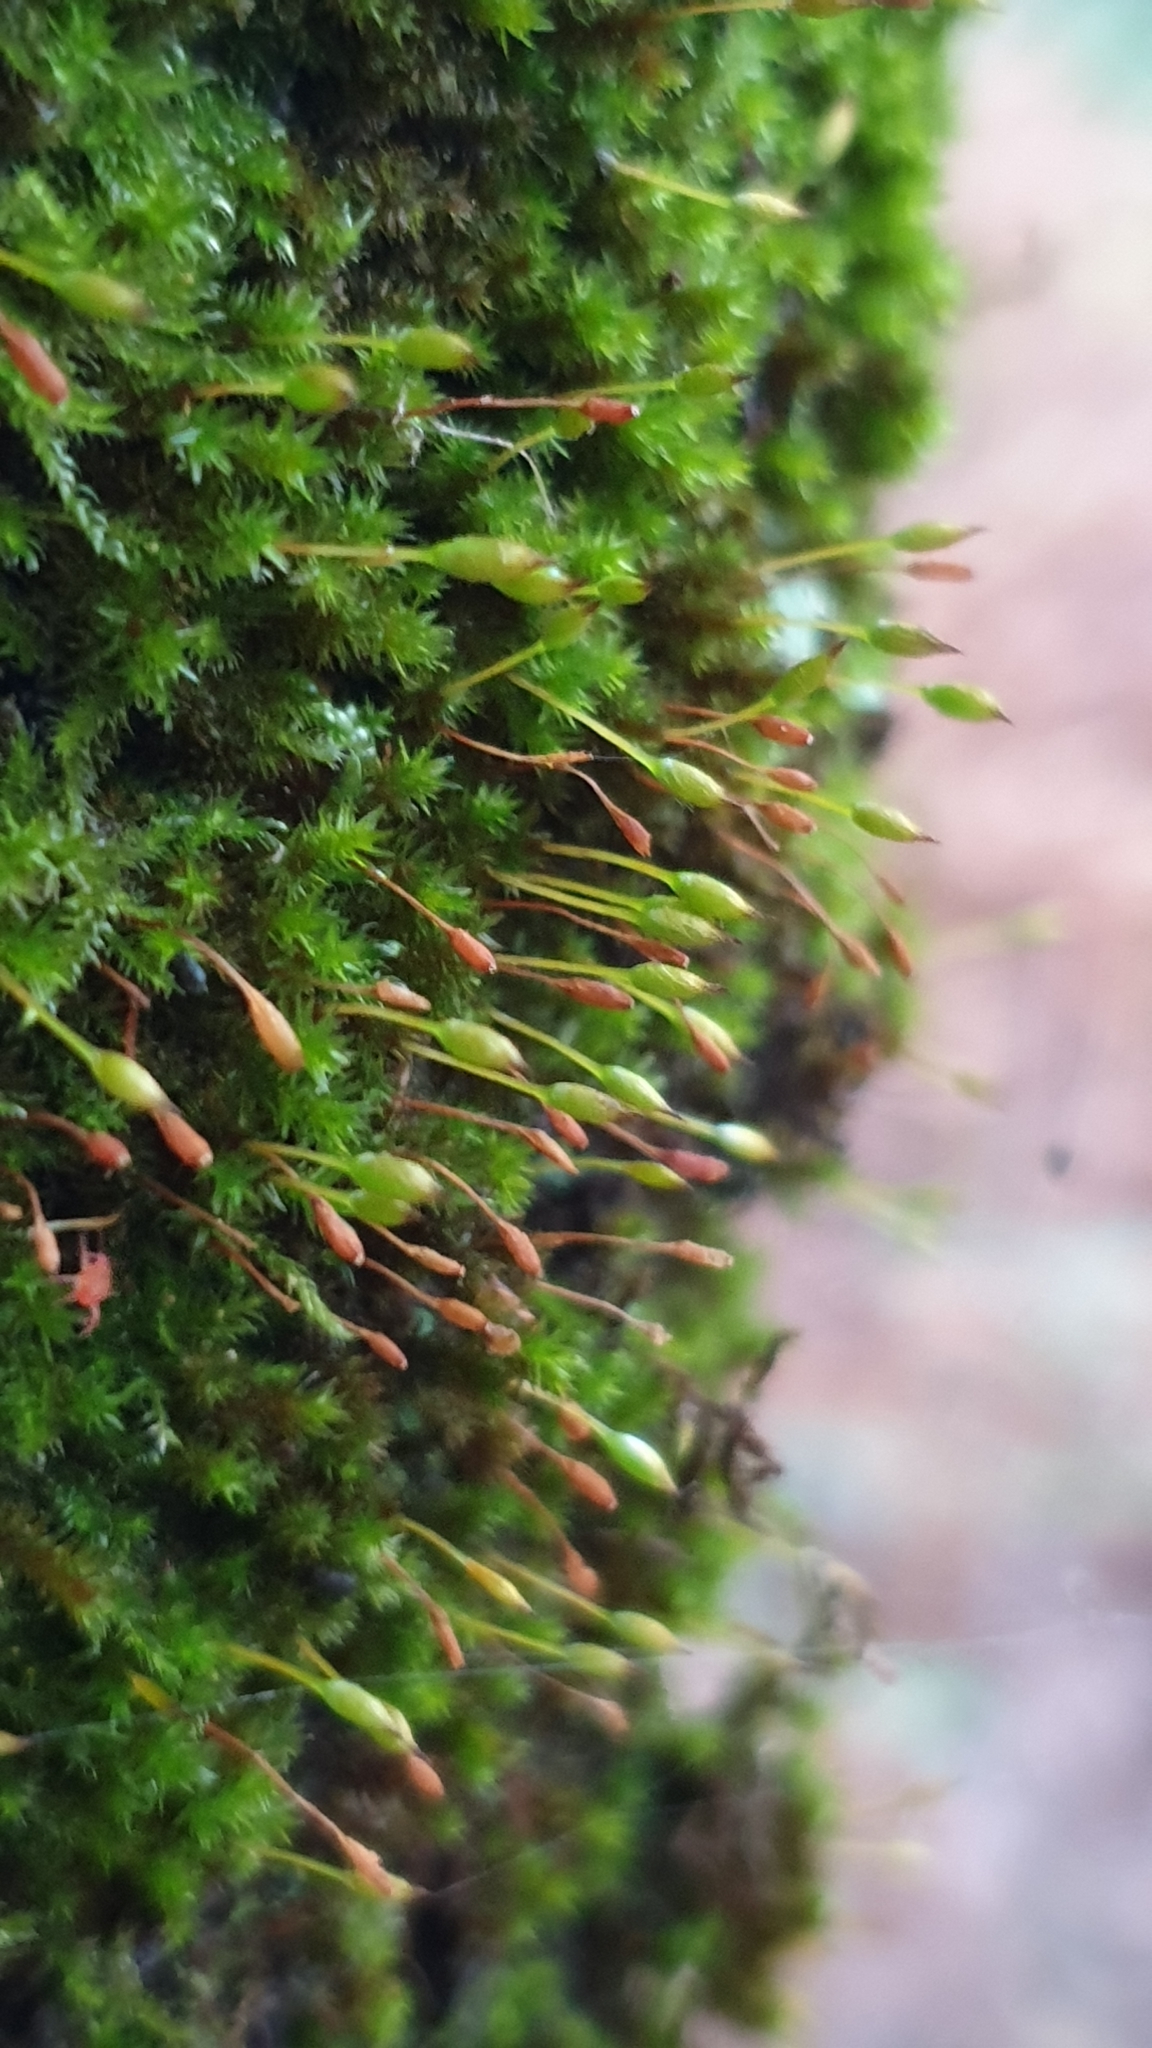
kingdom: Plantae
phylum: Bryophyta
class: Bryopsida
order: Orthotrichales
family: Orthotrichaceae
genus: Macrocoma
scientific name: Macrocoma tenuis
